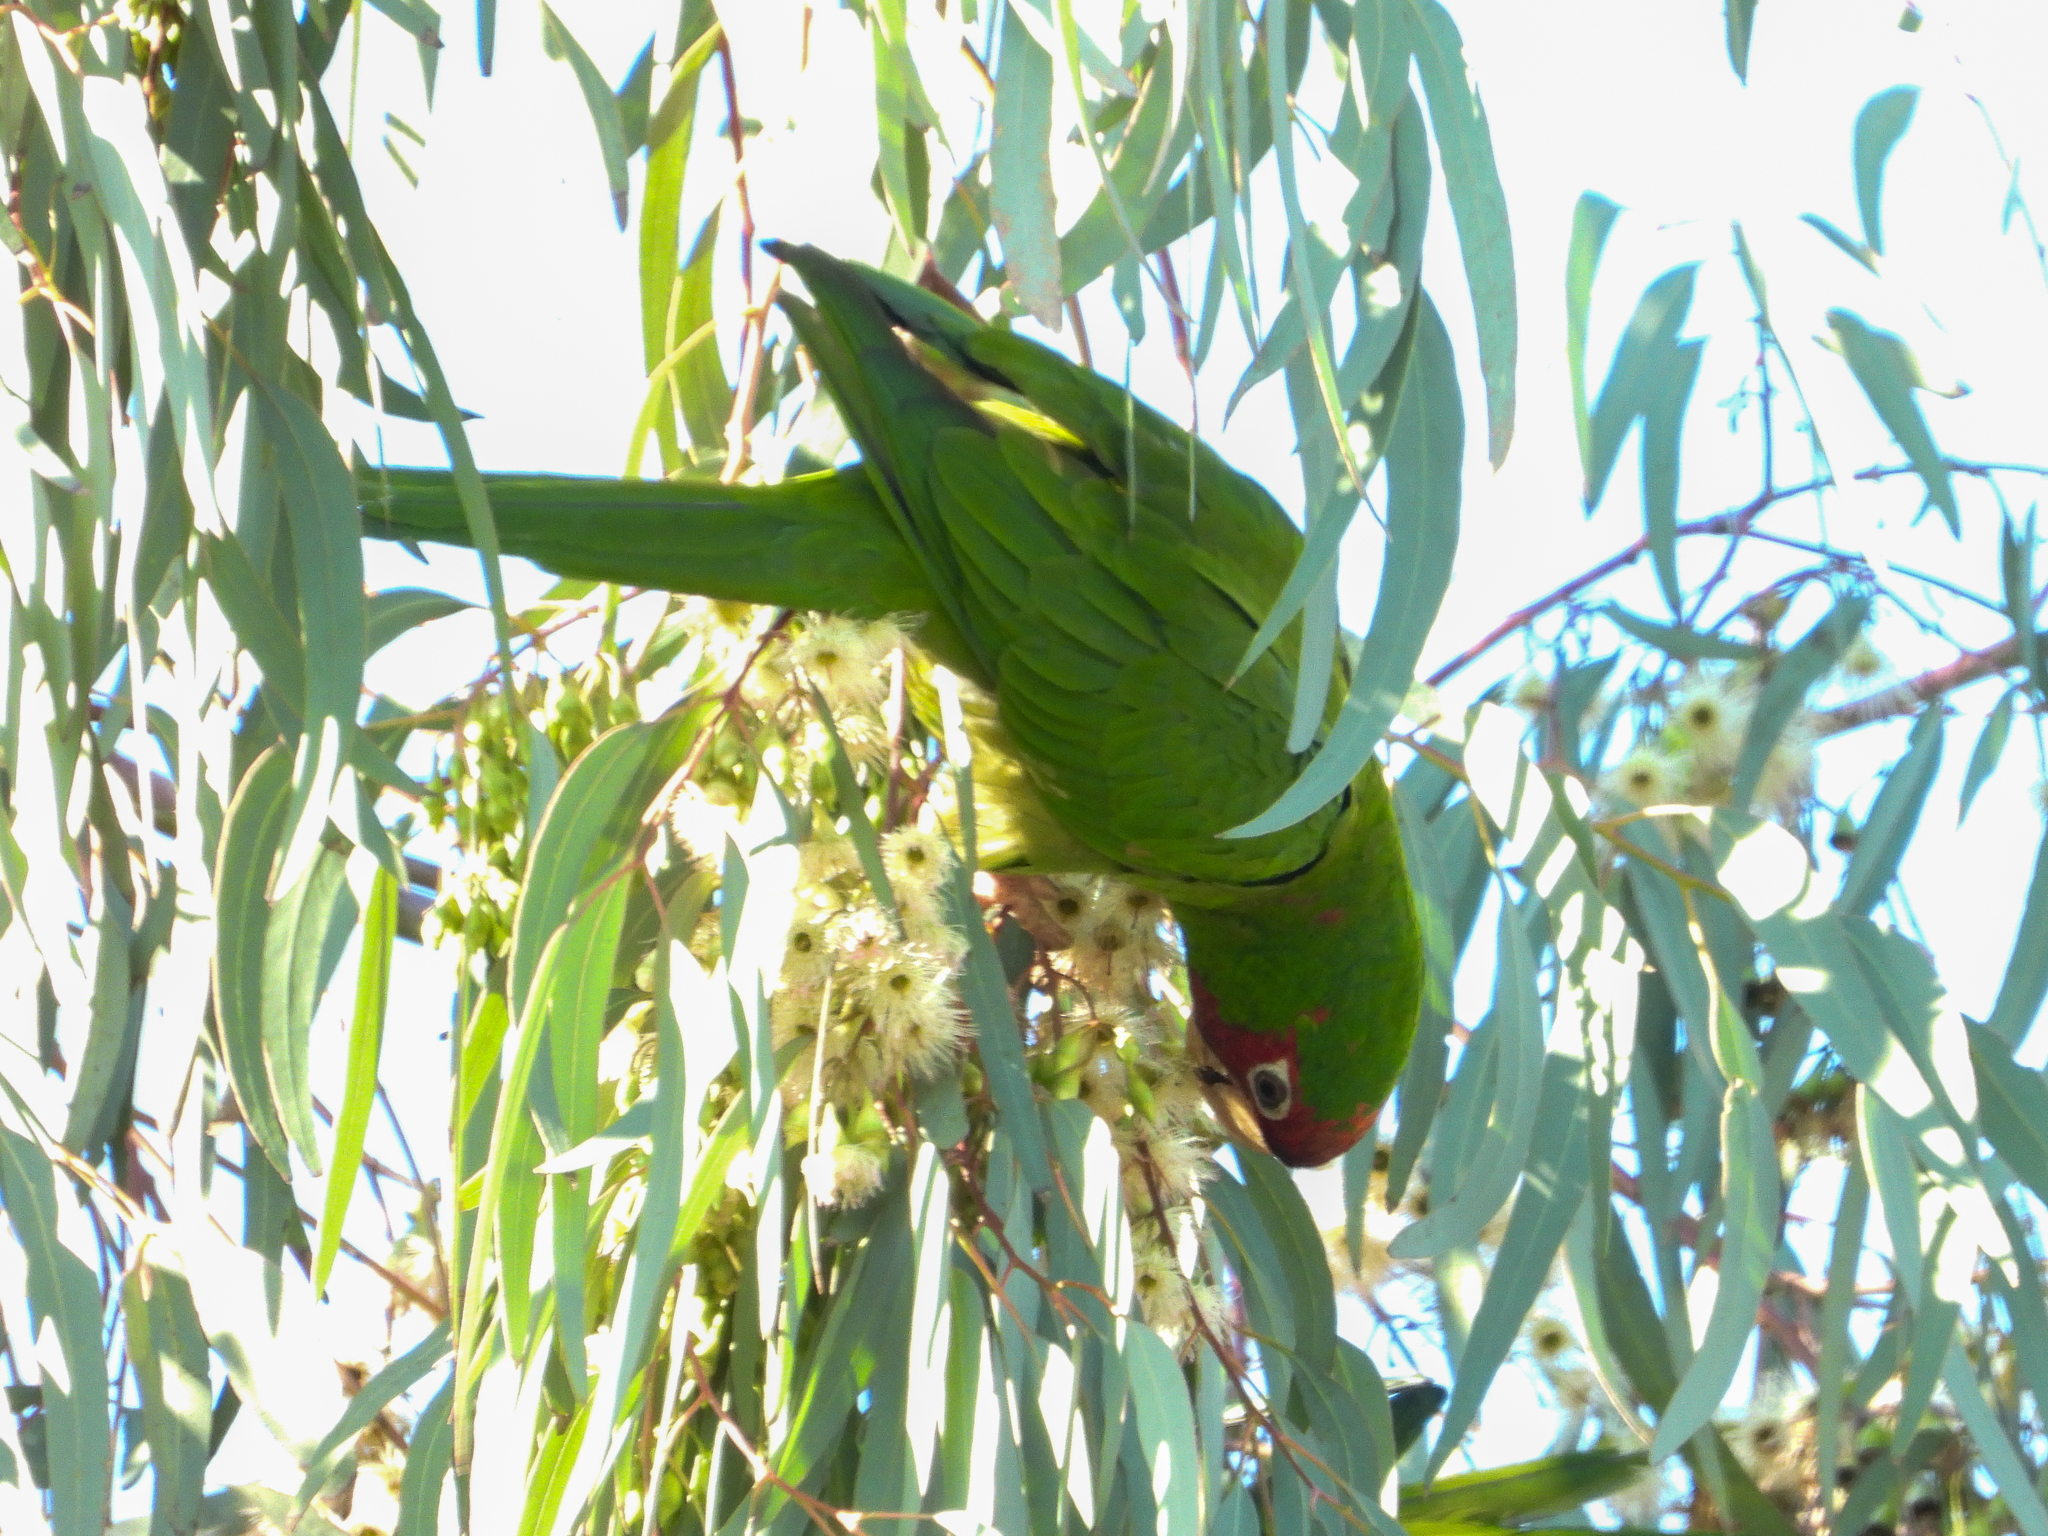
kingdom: Animalia
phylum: Chordata
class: Aves
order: Psittaciformes
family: Psittacidae
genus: Aratinga
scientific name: Aratinga mitrata
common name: Mitred parakeet
